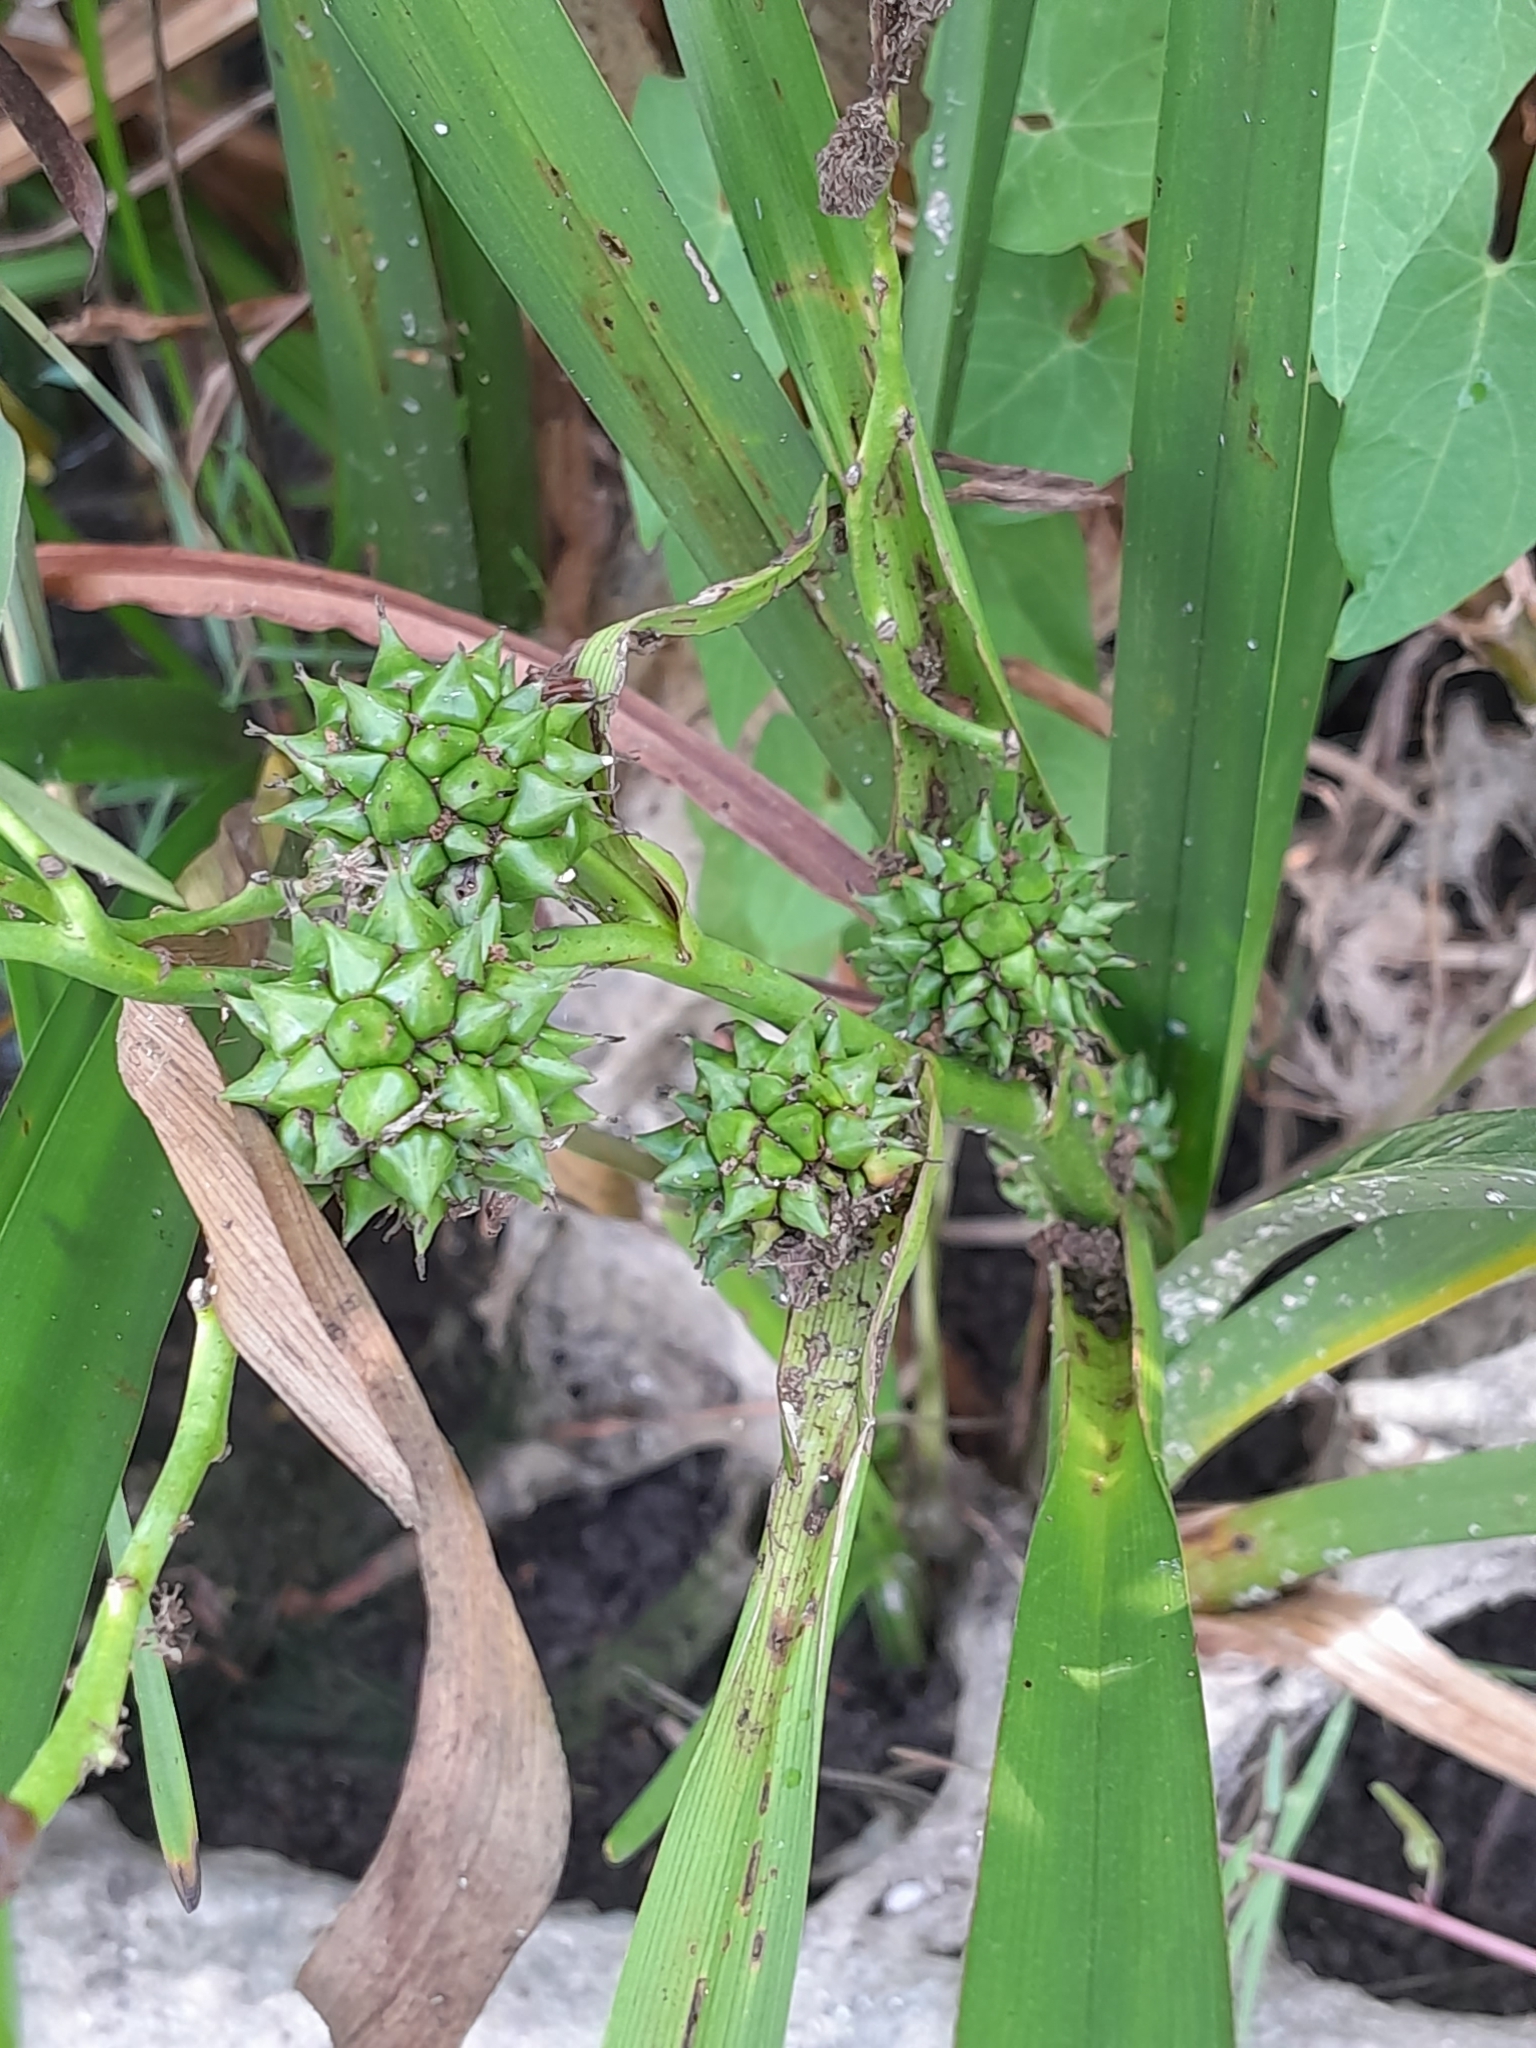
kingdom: Plantae
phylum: Tracheophyta
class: Liliopsida
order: Poales
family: Typhaceae
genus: Sparganium
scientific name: Sparganium erectum
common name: Branched bur-reed
